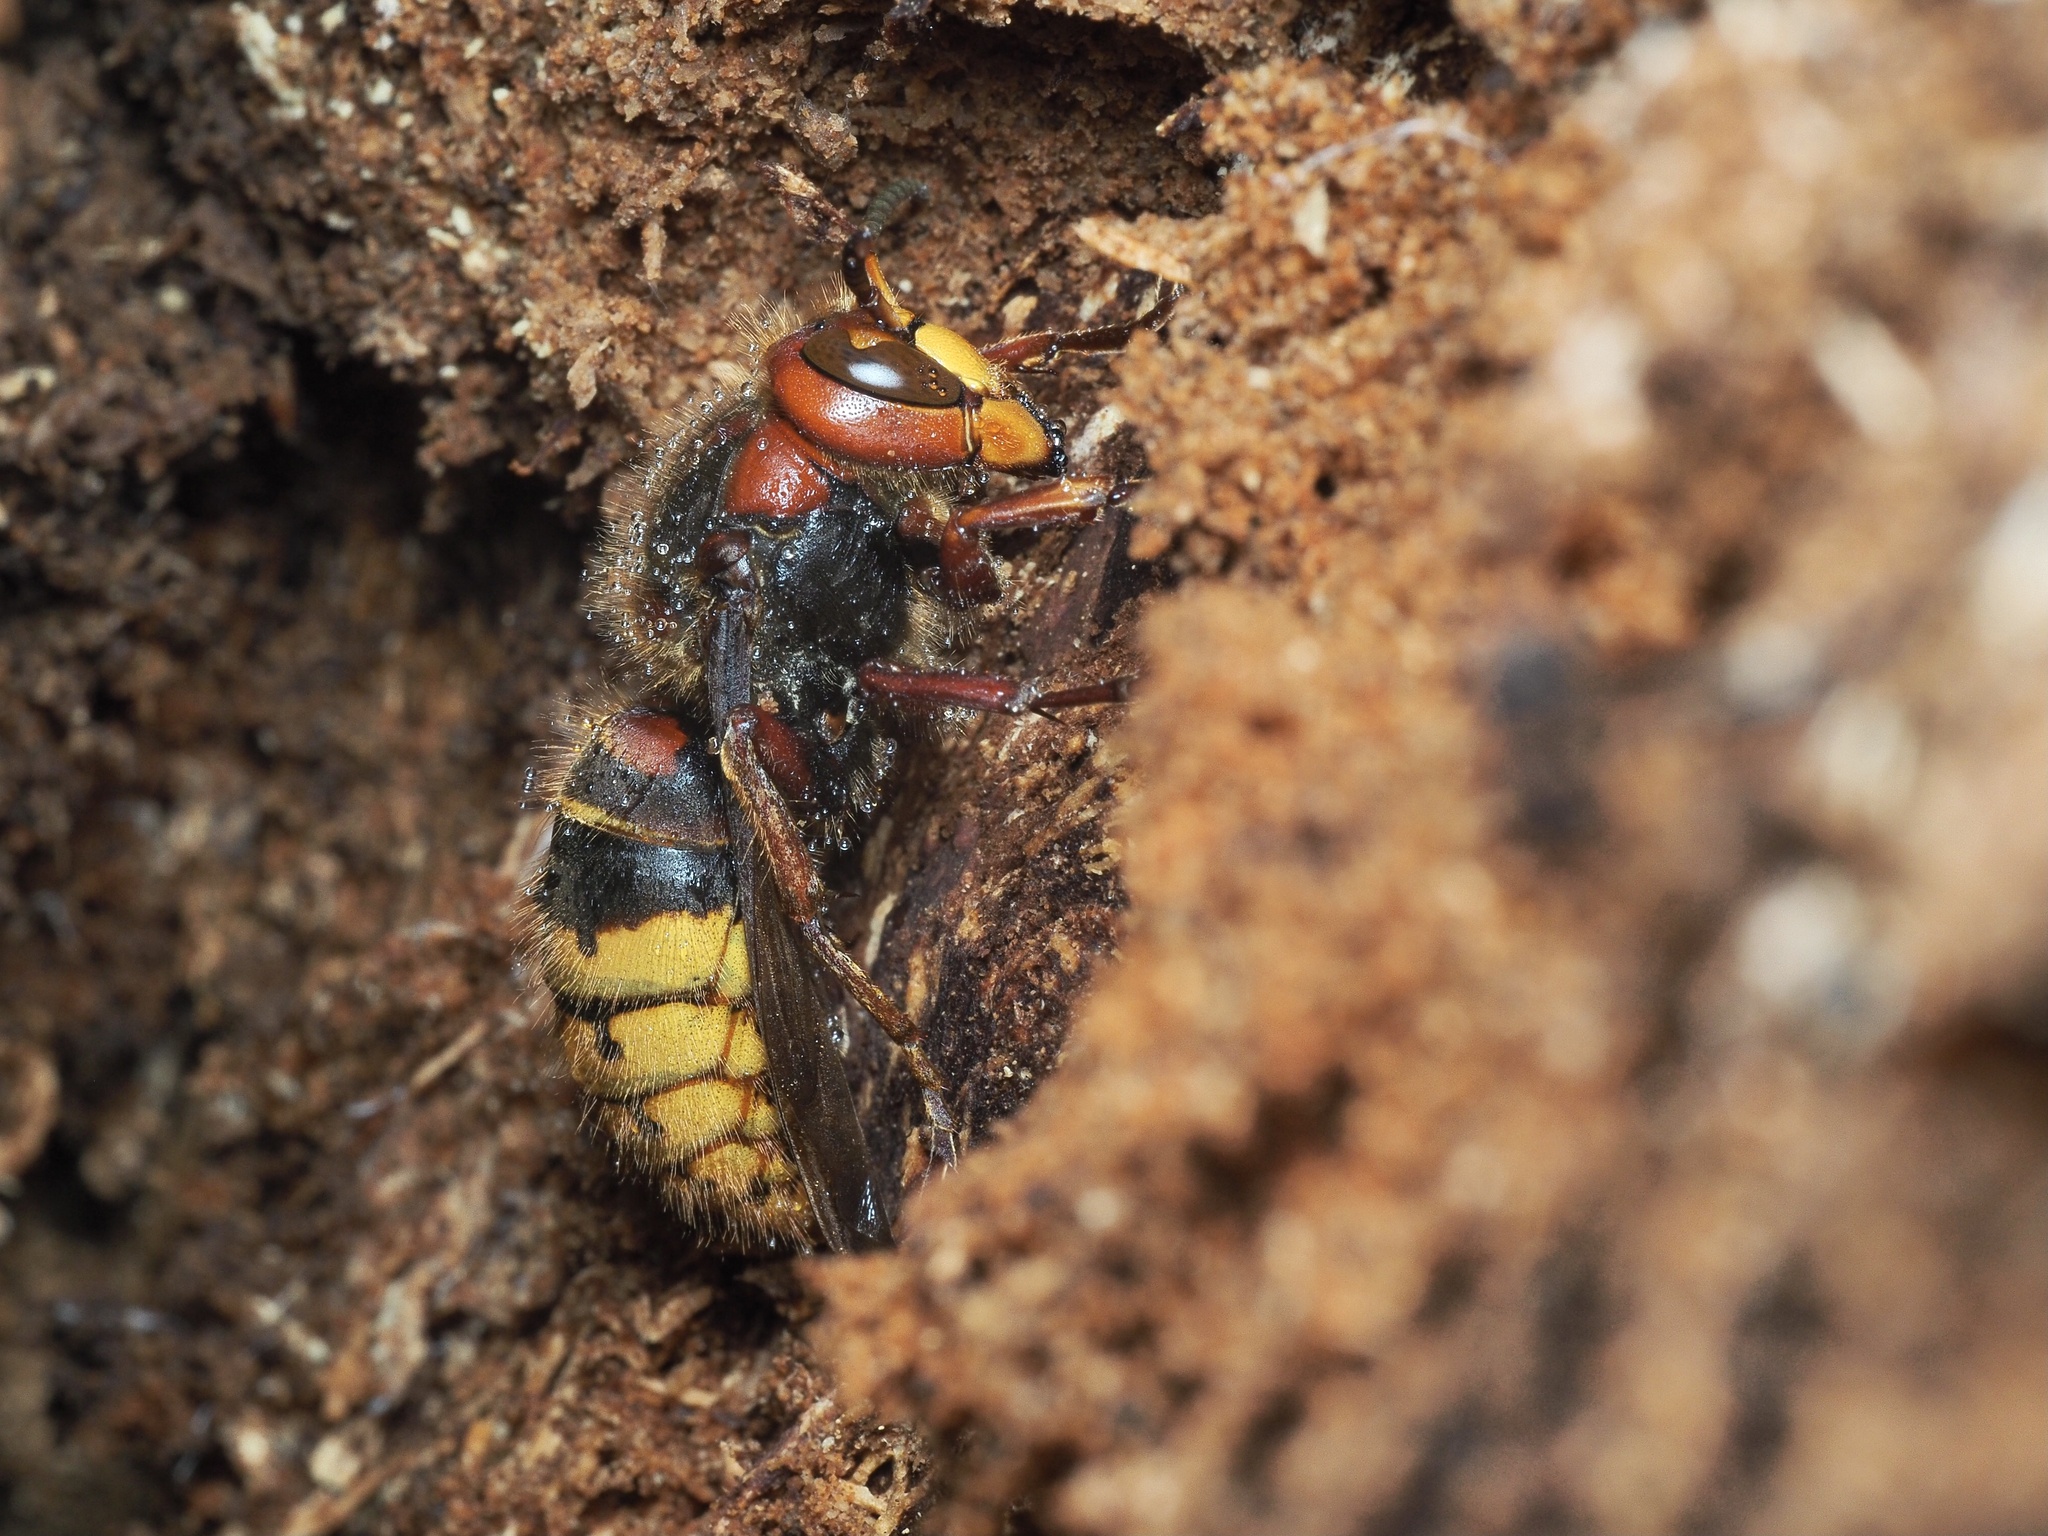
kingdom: Animalia
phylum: Arthropoda
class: Insecta
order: Hymenoptera
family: Vespidae
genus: Vespa
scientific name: Vespa crabro
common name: Hornet
